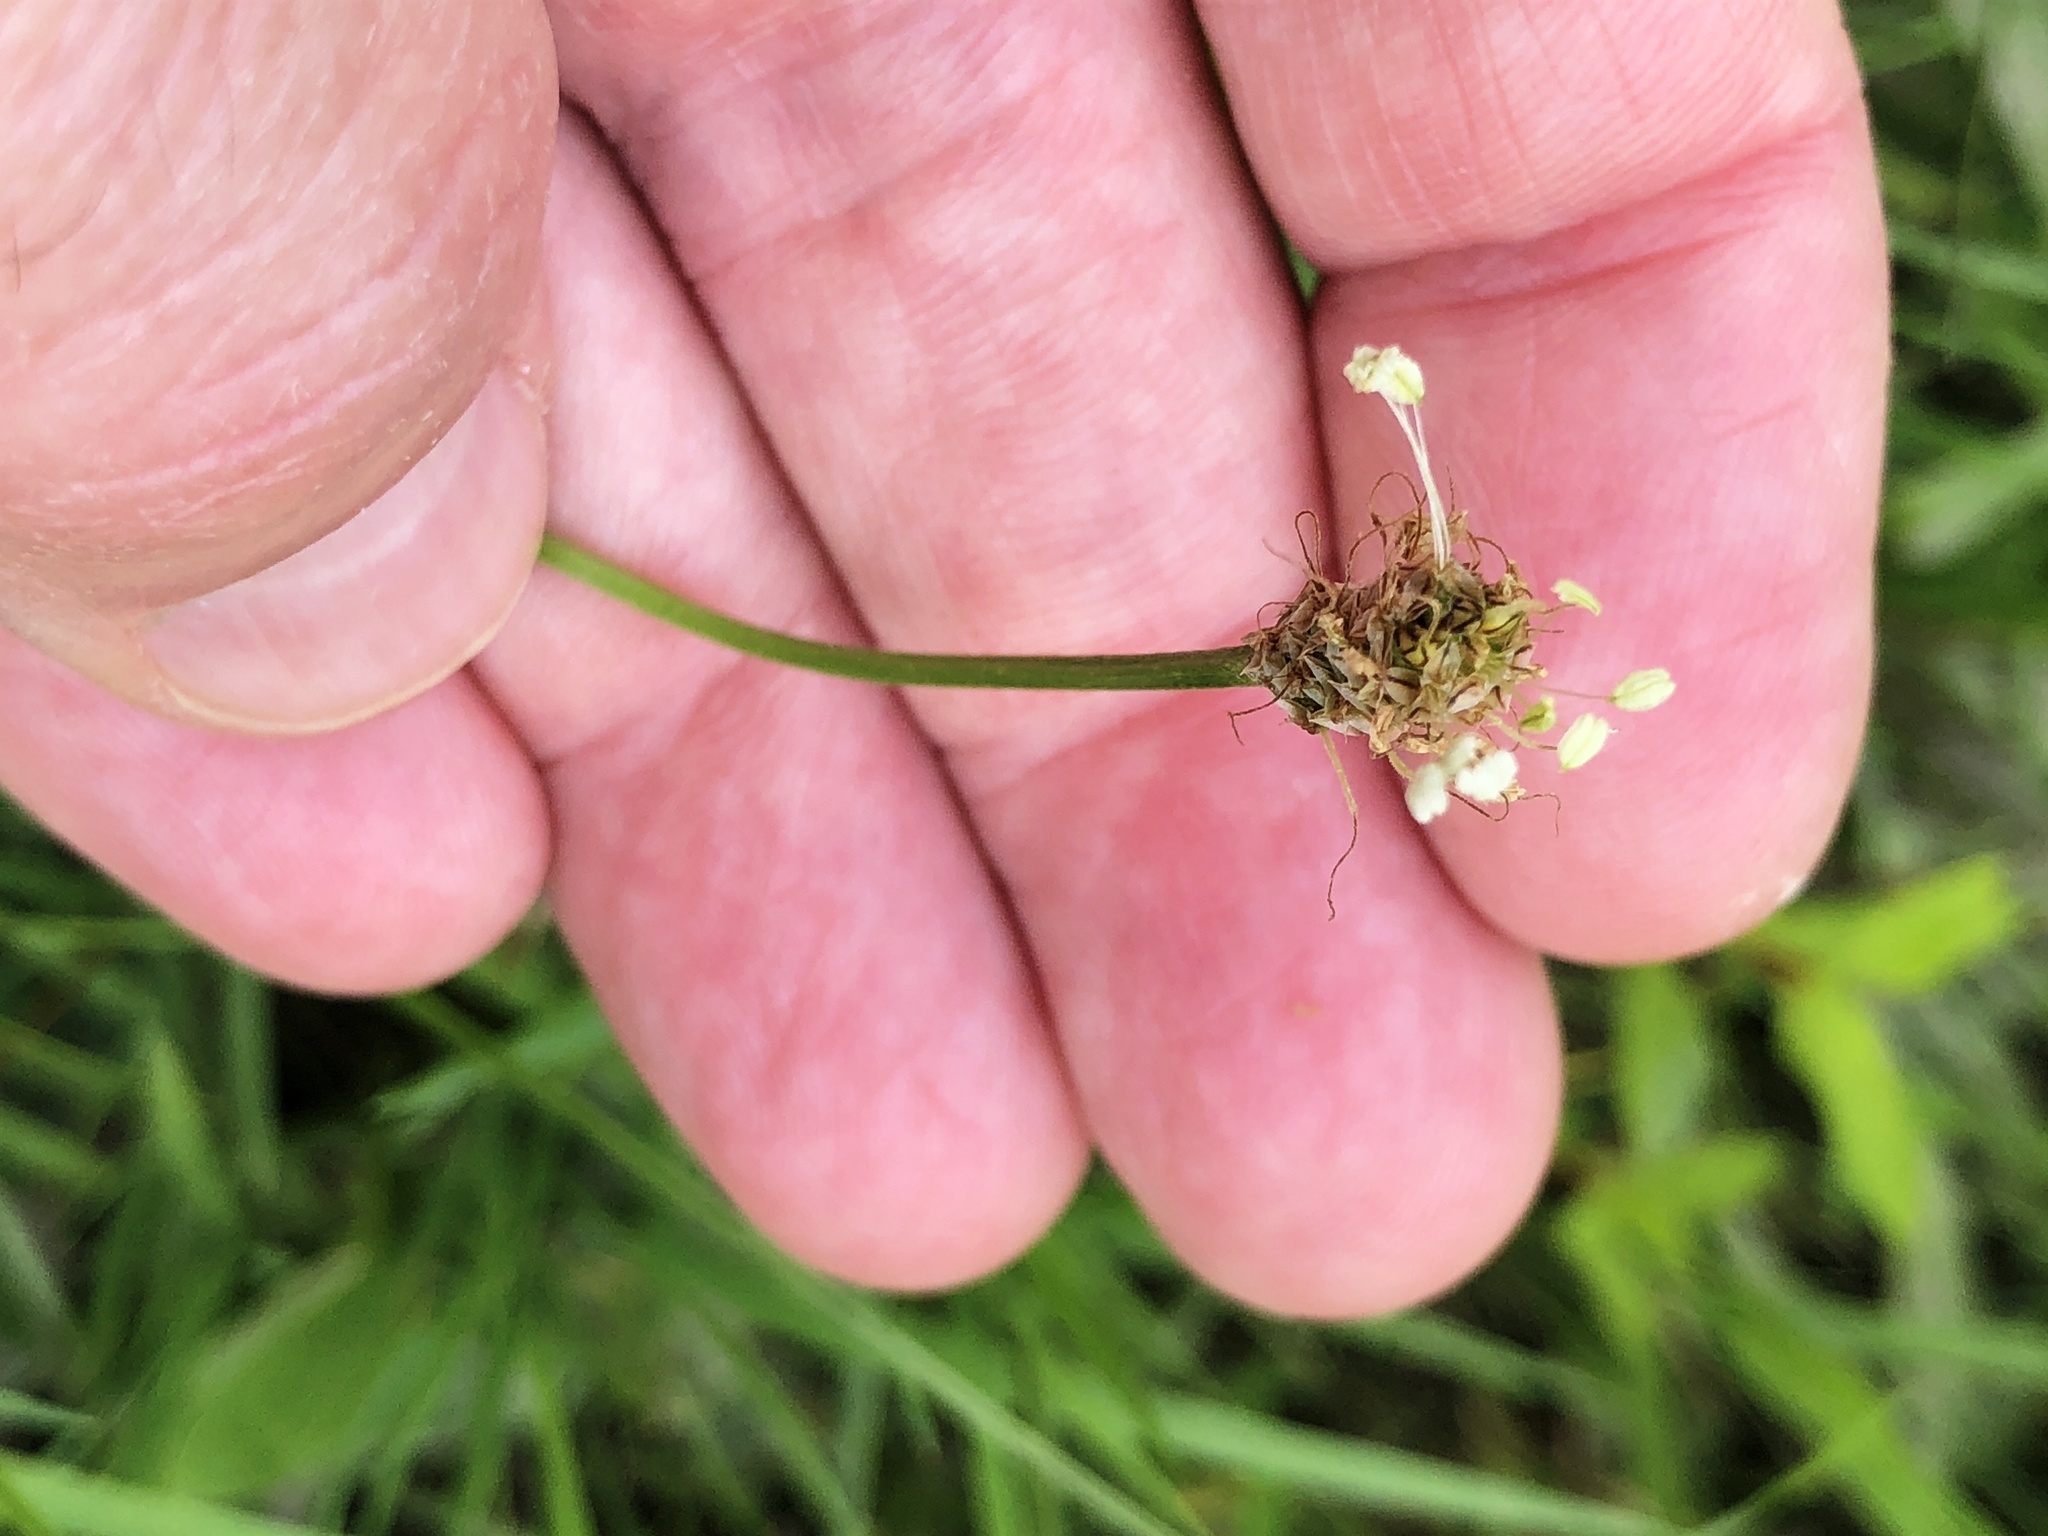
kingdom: Plantae
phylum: Tracheophyta
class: Magnoliopsida
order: Lamiales
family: Plantaginaceae
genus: Plantago
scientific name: Plantago lanceolata
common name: Ribwort plantain
